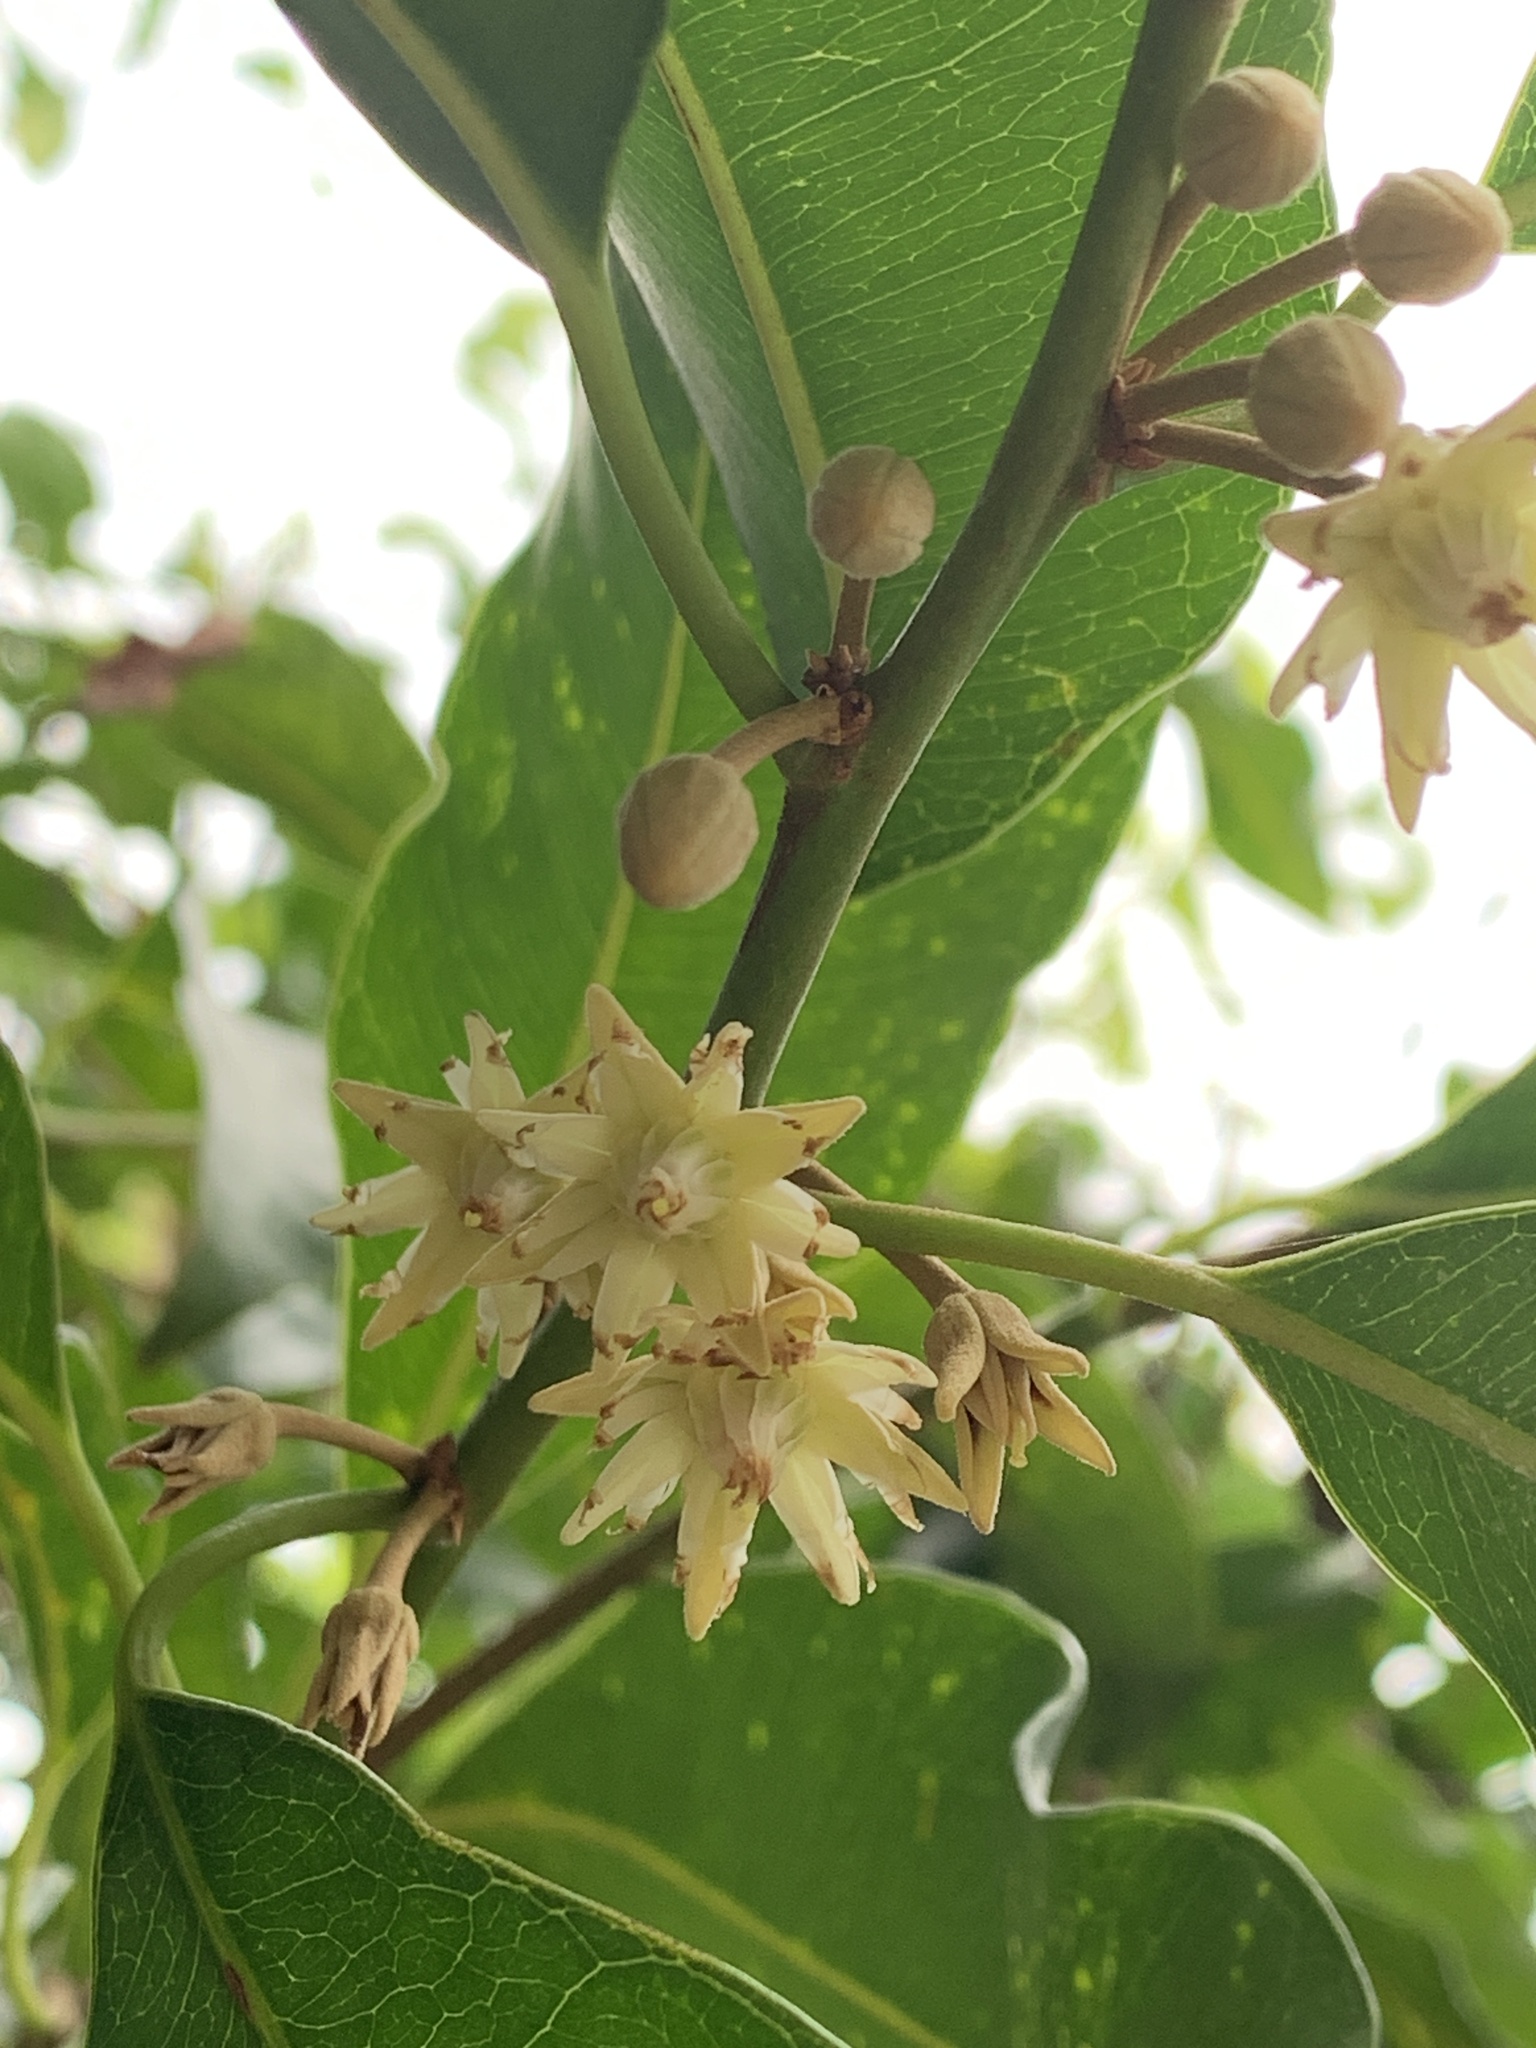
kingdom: Plantae
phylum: Tracheophyta
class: Magnoliopsida
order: Ericales
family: Sapotaceae
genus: Mimusops
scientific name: Mimusops elengi
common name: Spanish cherry
